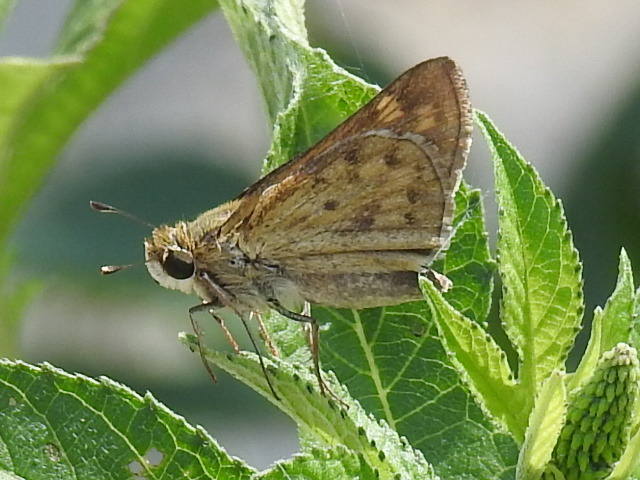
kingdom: Animalia
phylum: Arthropoda
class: Insecta
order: Lepidoptera
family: Hesperiidae
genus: Hylephila
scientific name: Hylephila phyleus
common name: Fiery skipper
